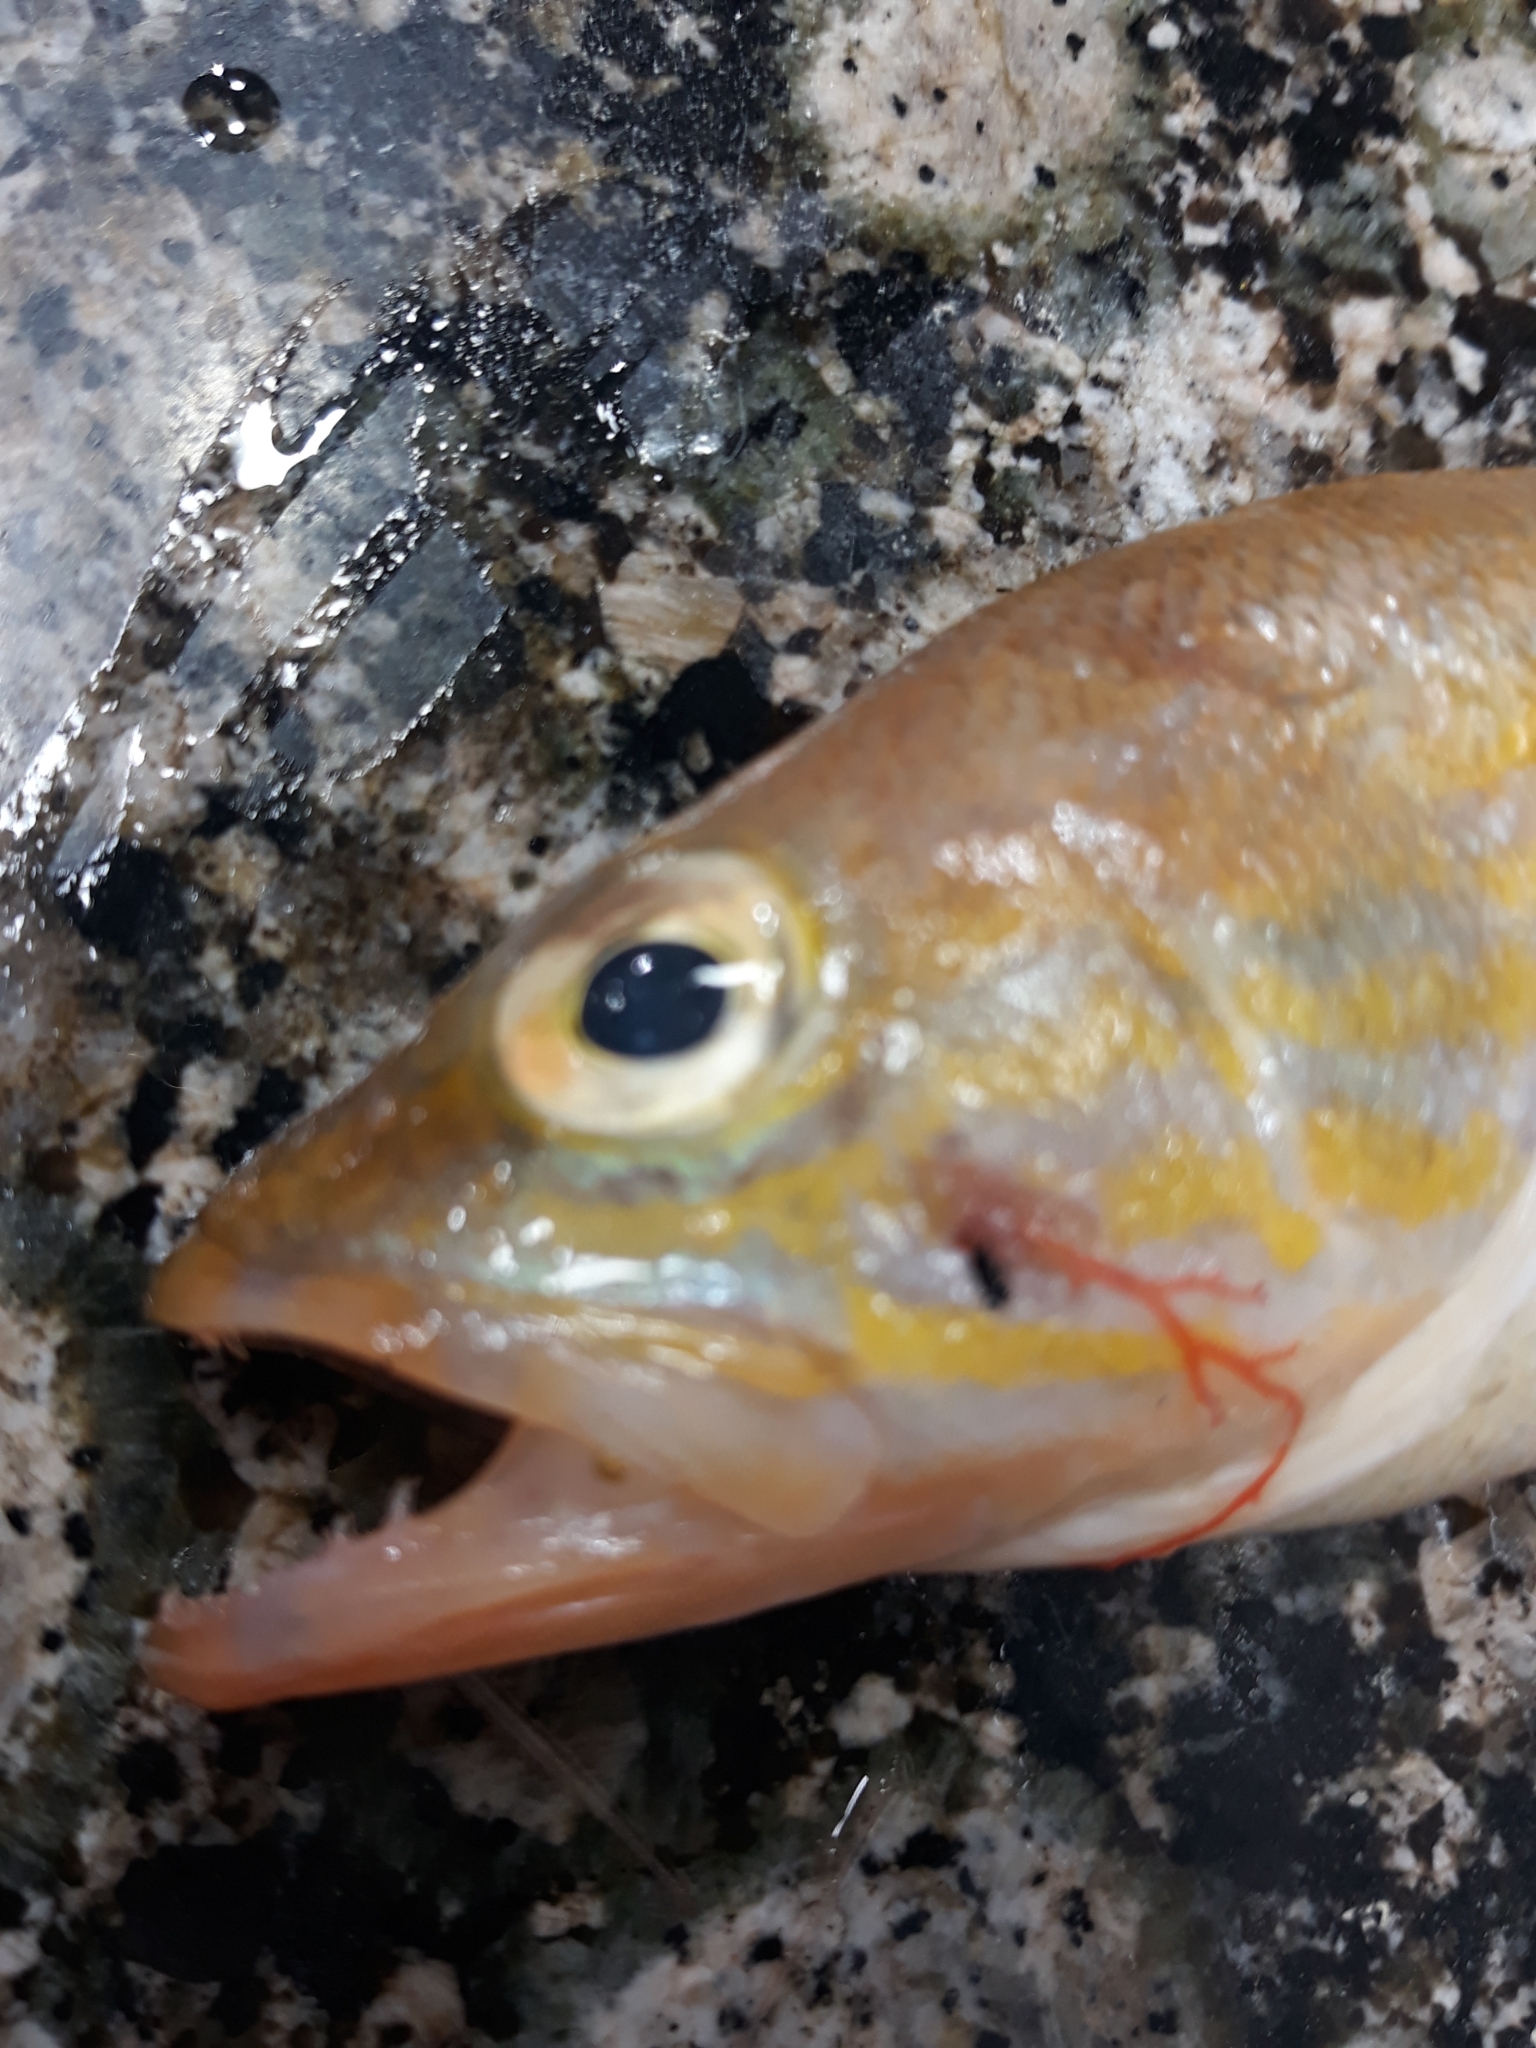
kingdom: Animalia
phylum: Chordata
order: Perciformes
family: Serranidae
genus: Serranus
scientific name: Serranus cabrilla
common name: Comber
